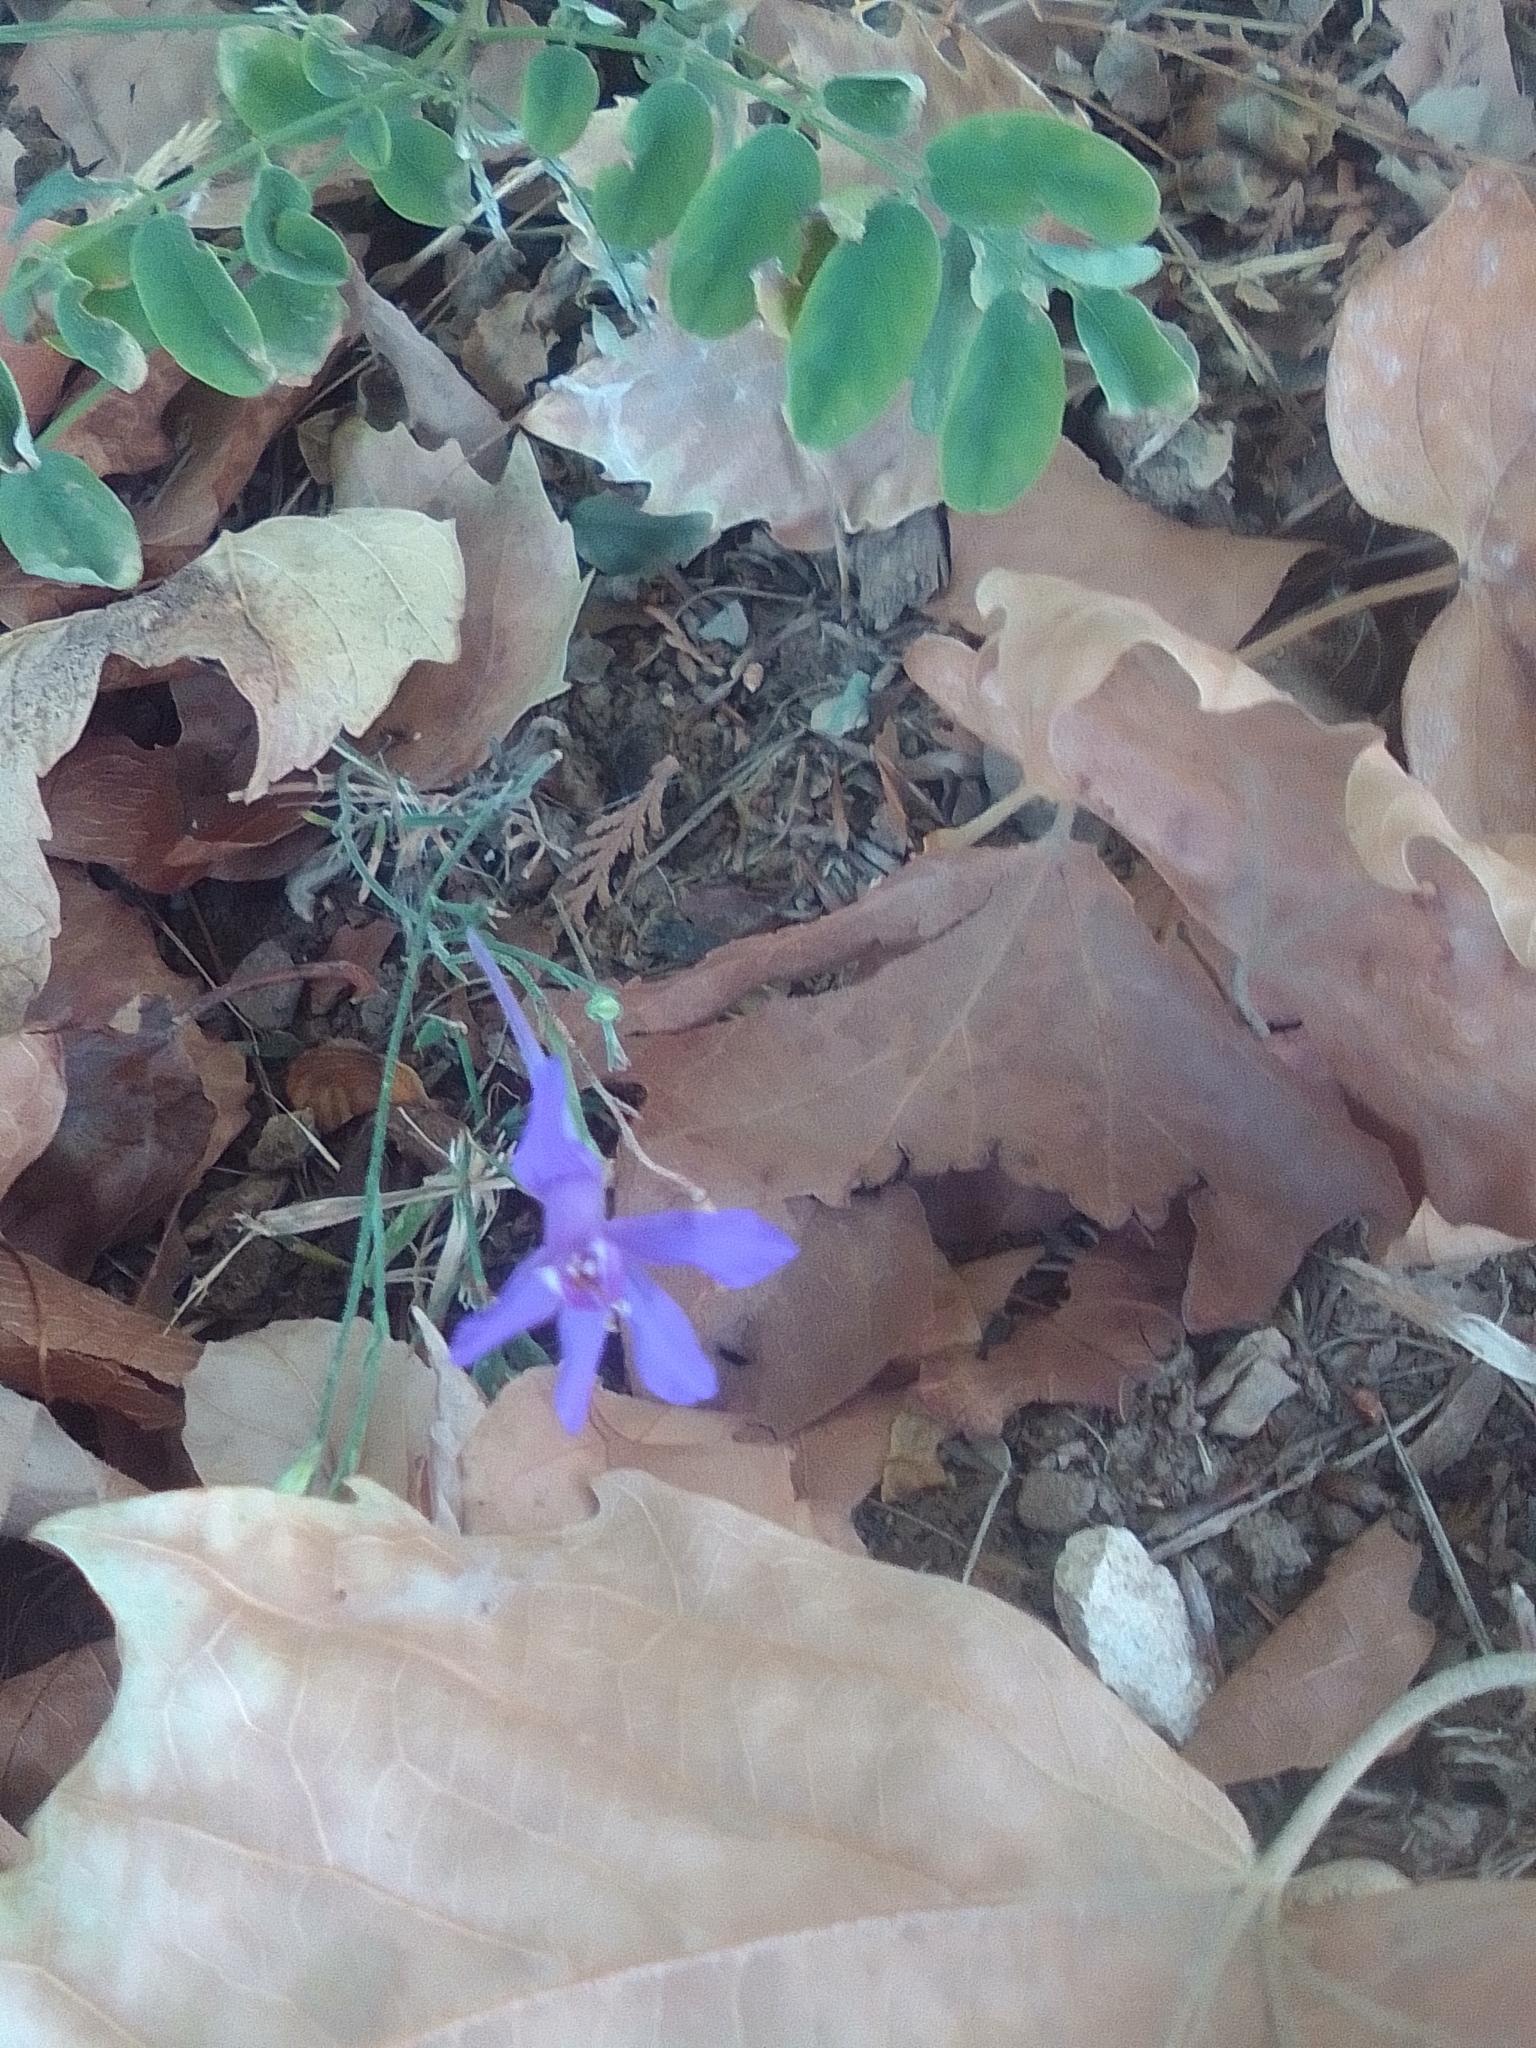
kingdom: Plantae
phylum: Tracheophyta
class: Magnoliopsida
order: Ranunculales
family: Ranunculaceae
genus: Delphinium
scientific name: Delphinium consolida
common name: Branching larkspur
